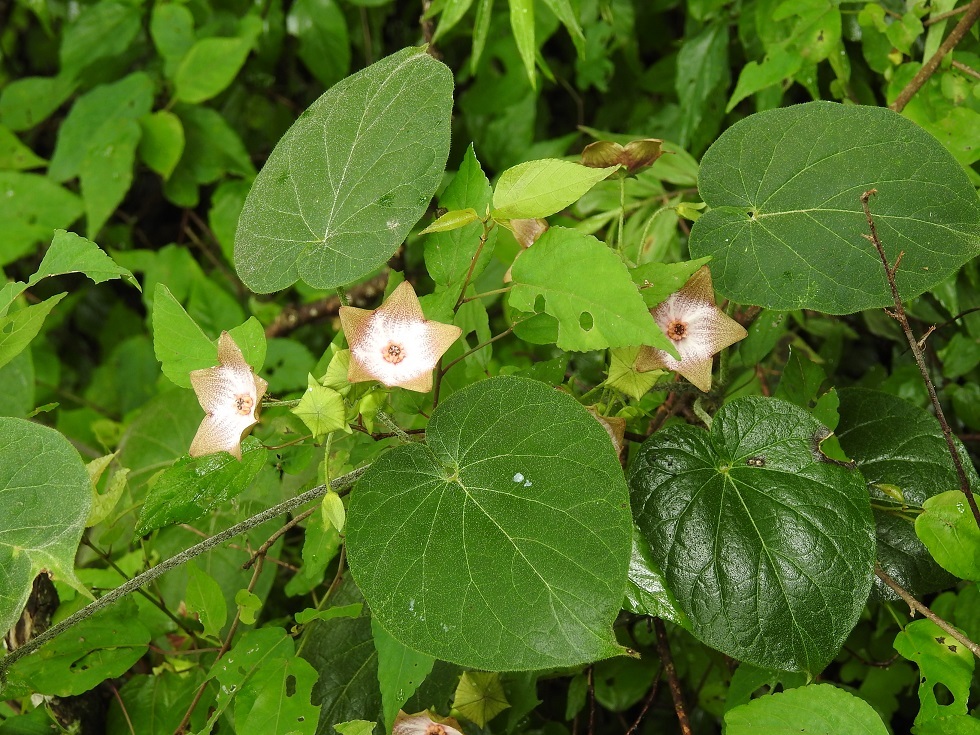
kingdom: Plantae
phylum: Tracheophyta
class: Magnoliopsida
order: Gentianales
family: Apocynaceae
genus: Polystemma
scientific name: Polystemma guatemalense
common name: Arborescente rattan
